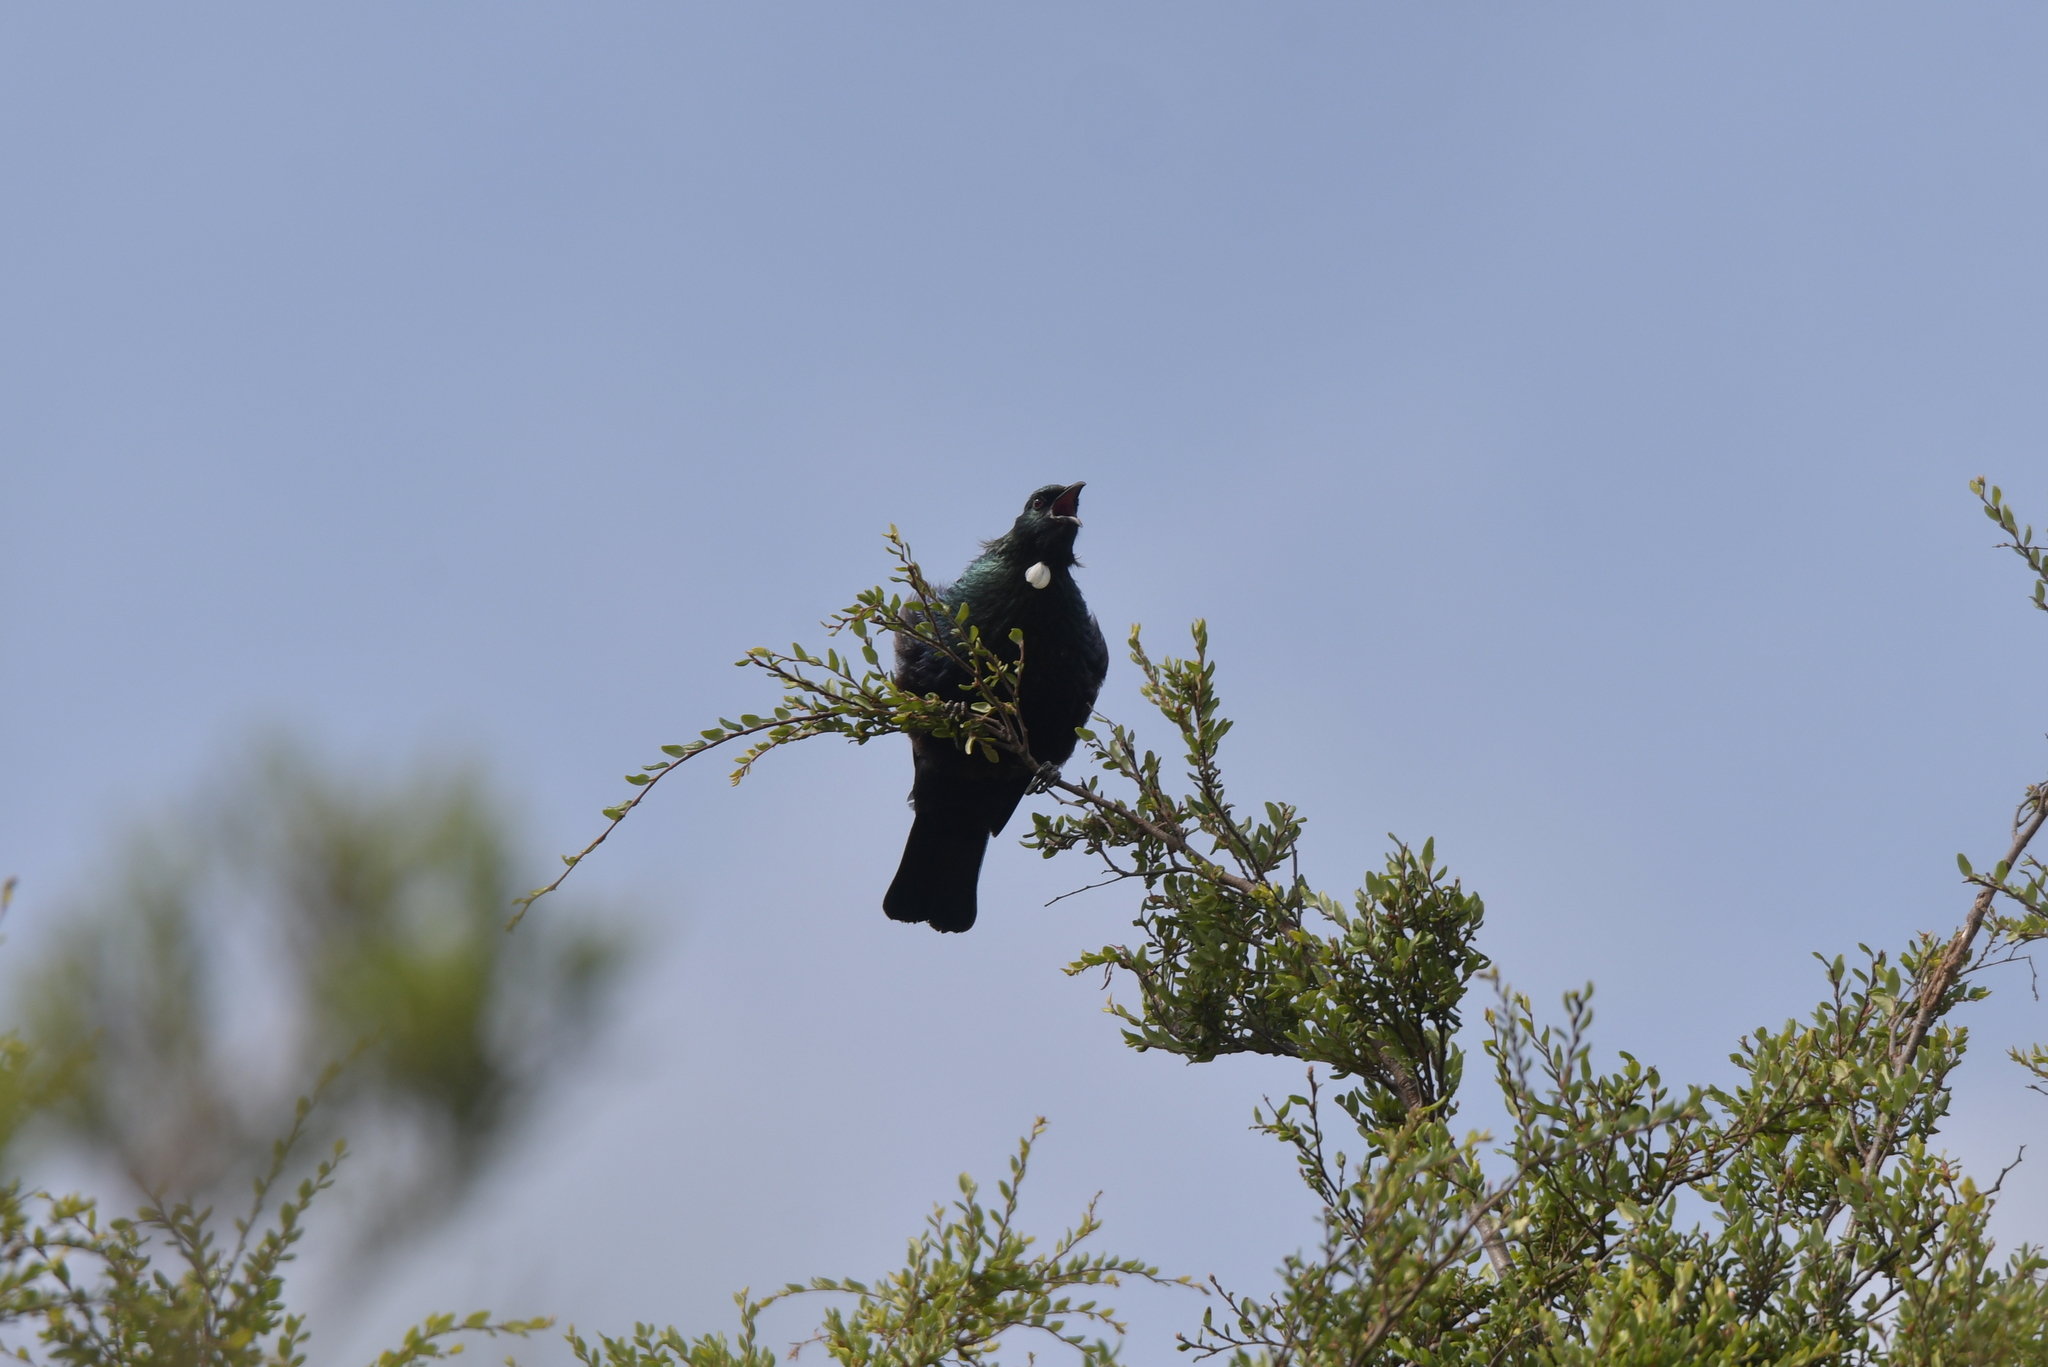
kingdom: Animalia
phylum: Chordata
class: Aves
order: Passeriformes
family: Meliphagidae
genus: Prosthemadera
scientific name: Prosthemadera novaeseelandiae
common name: Tui
